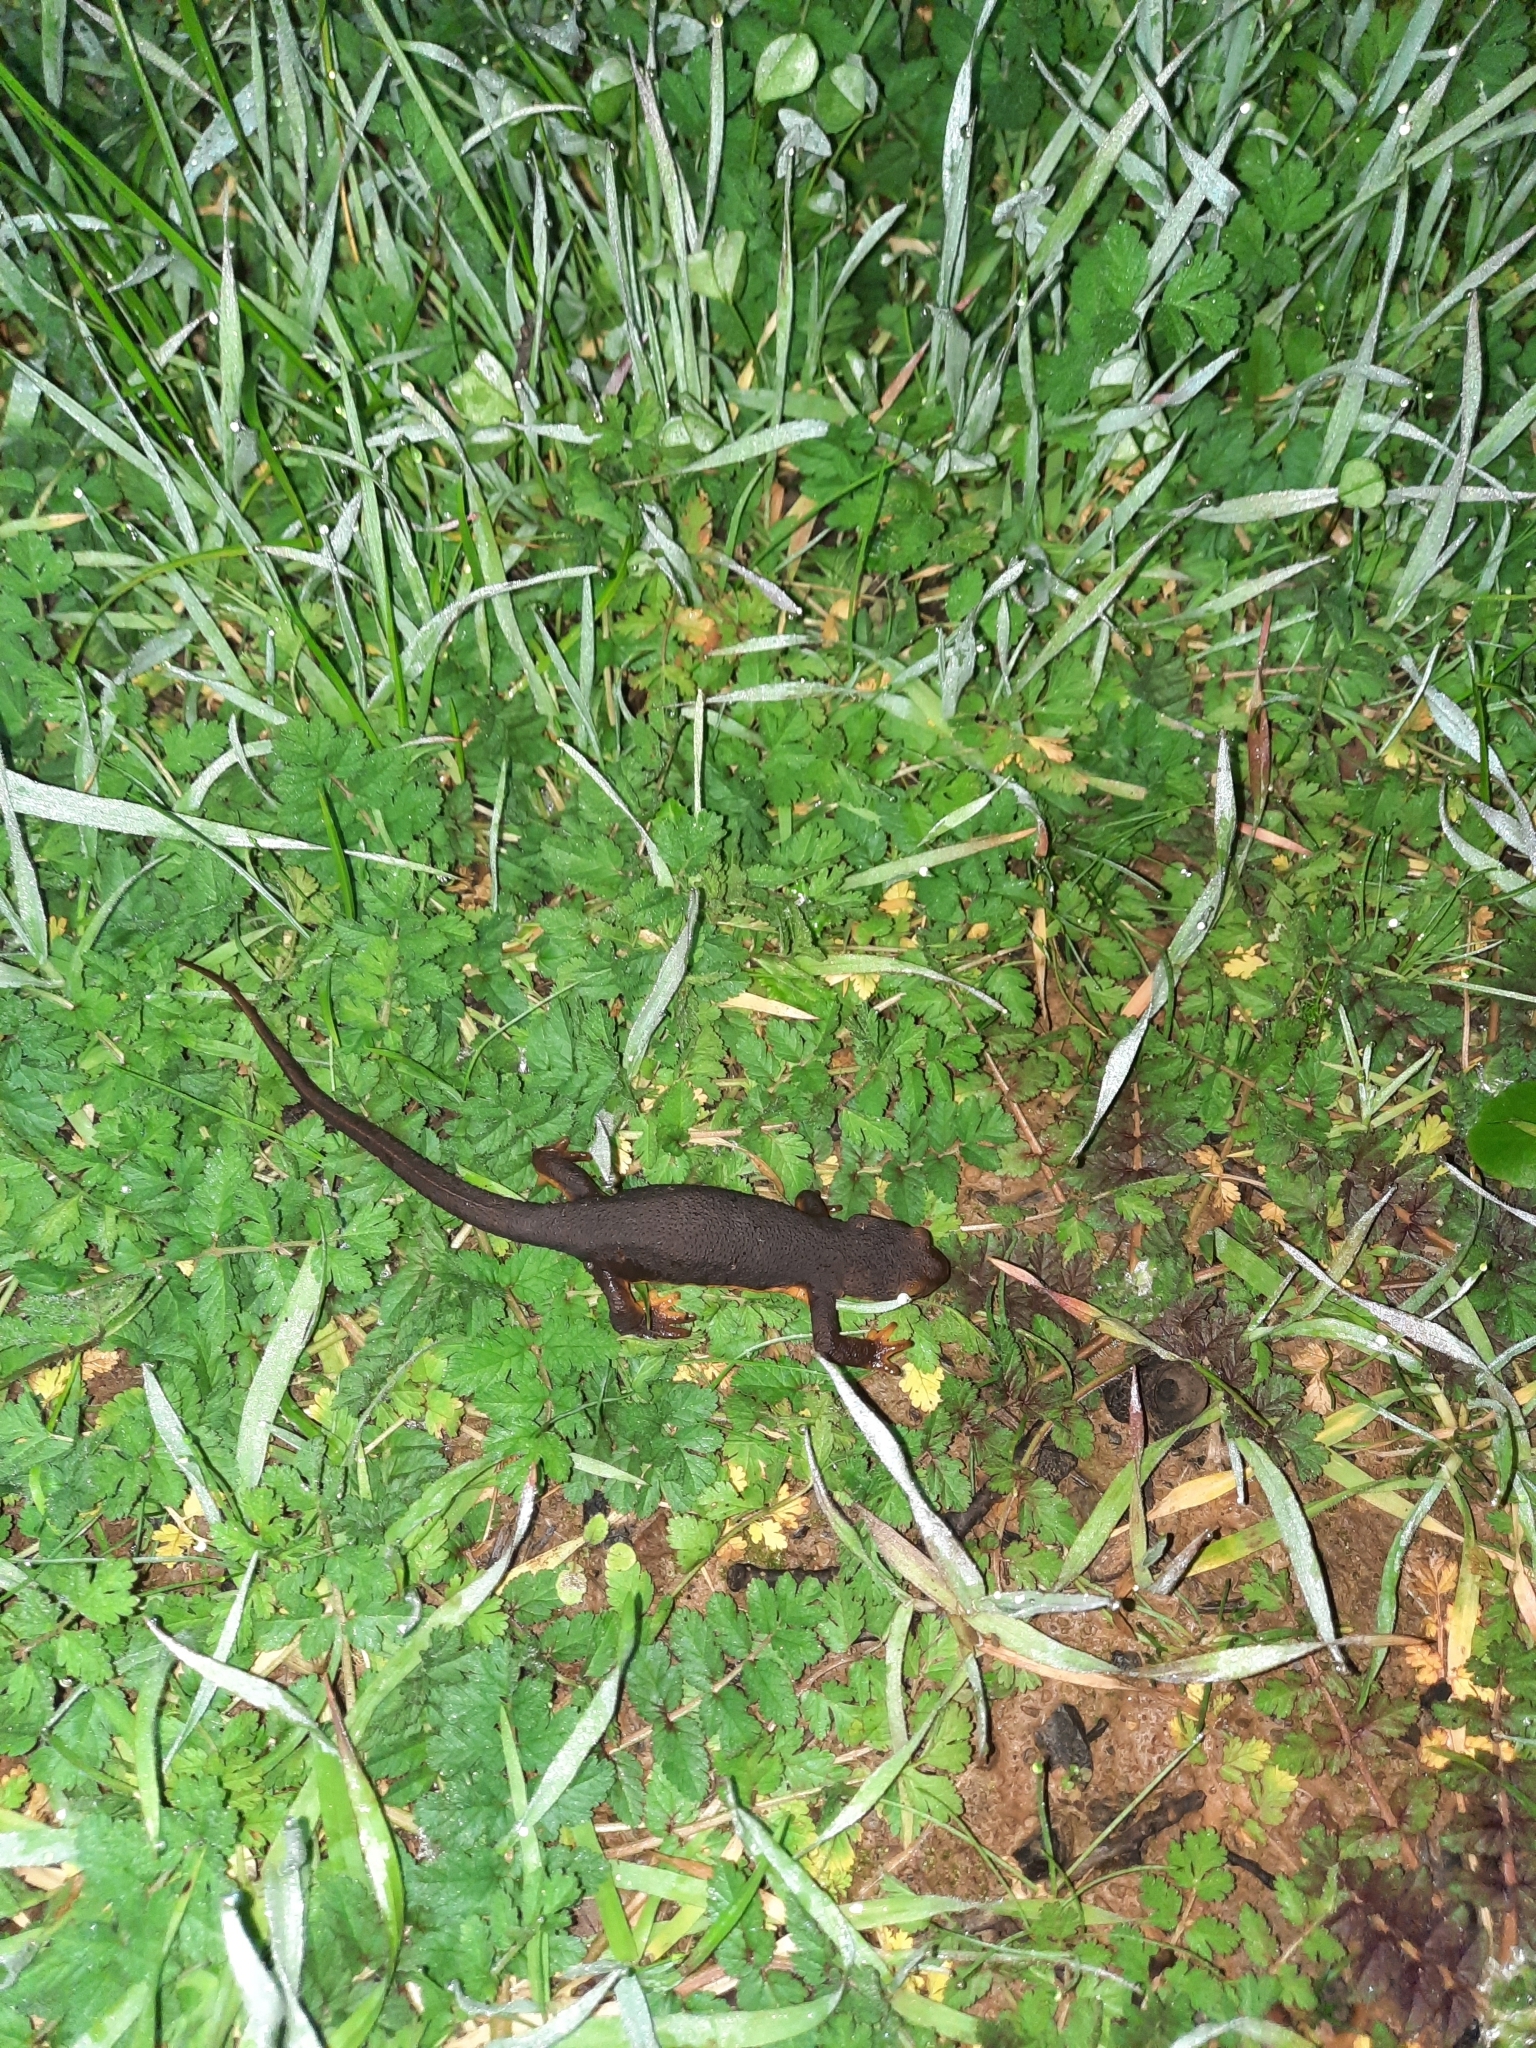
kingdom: Animalia
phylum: Chordata
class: Amphibia
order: Caudata
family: Salamandridae
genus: Taricha
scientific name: Taricha torosa
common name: California newt
